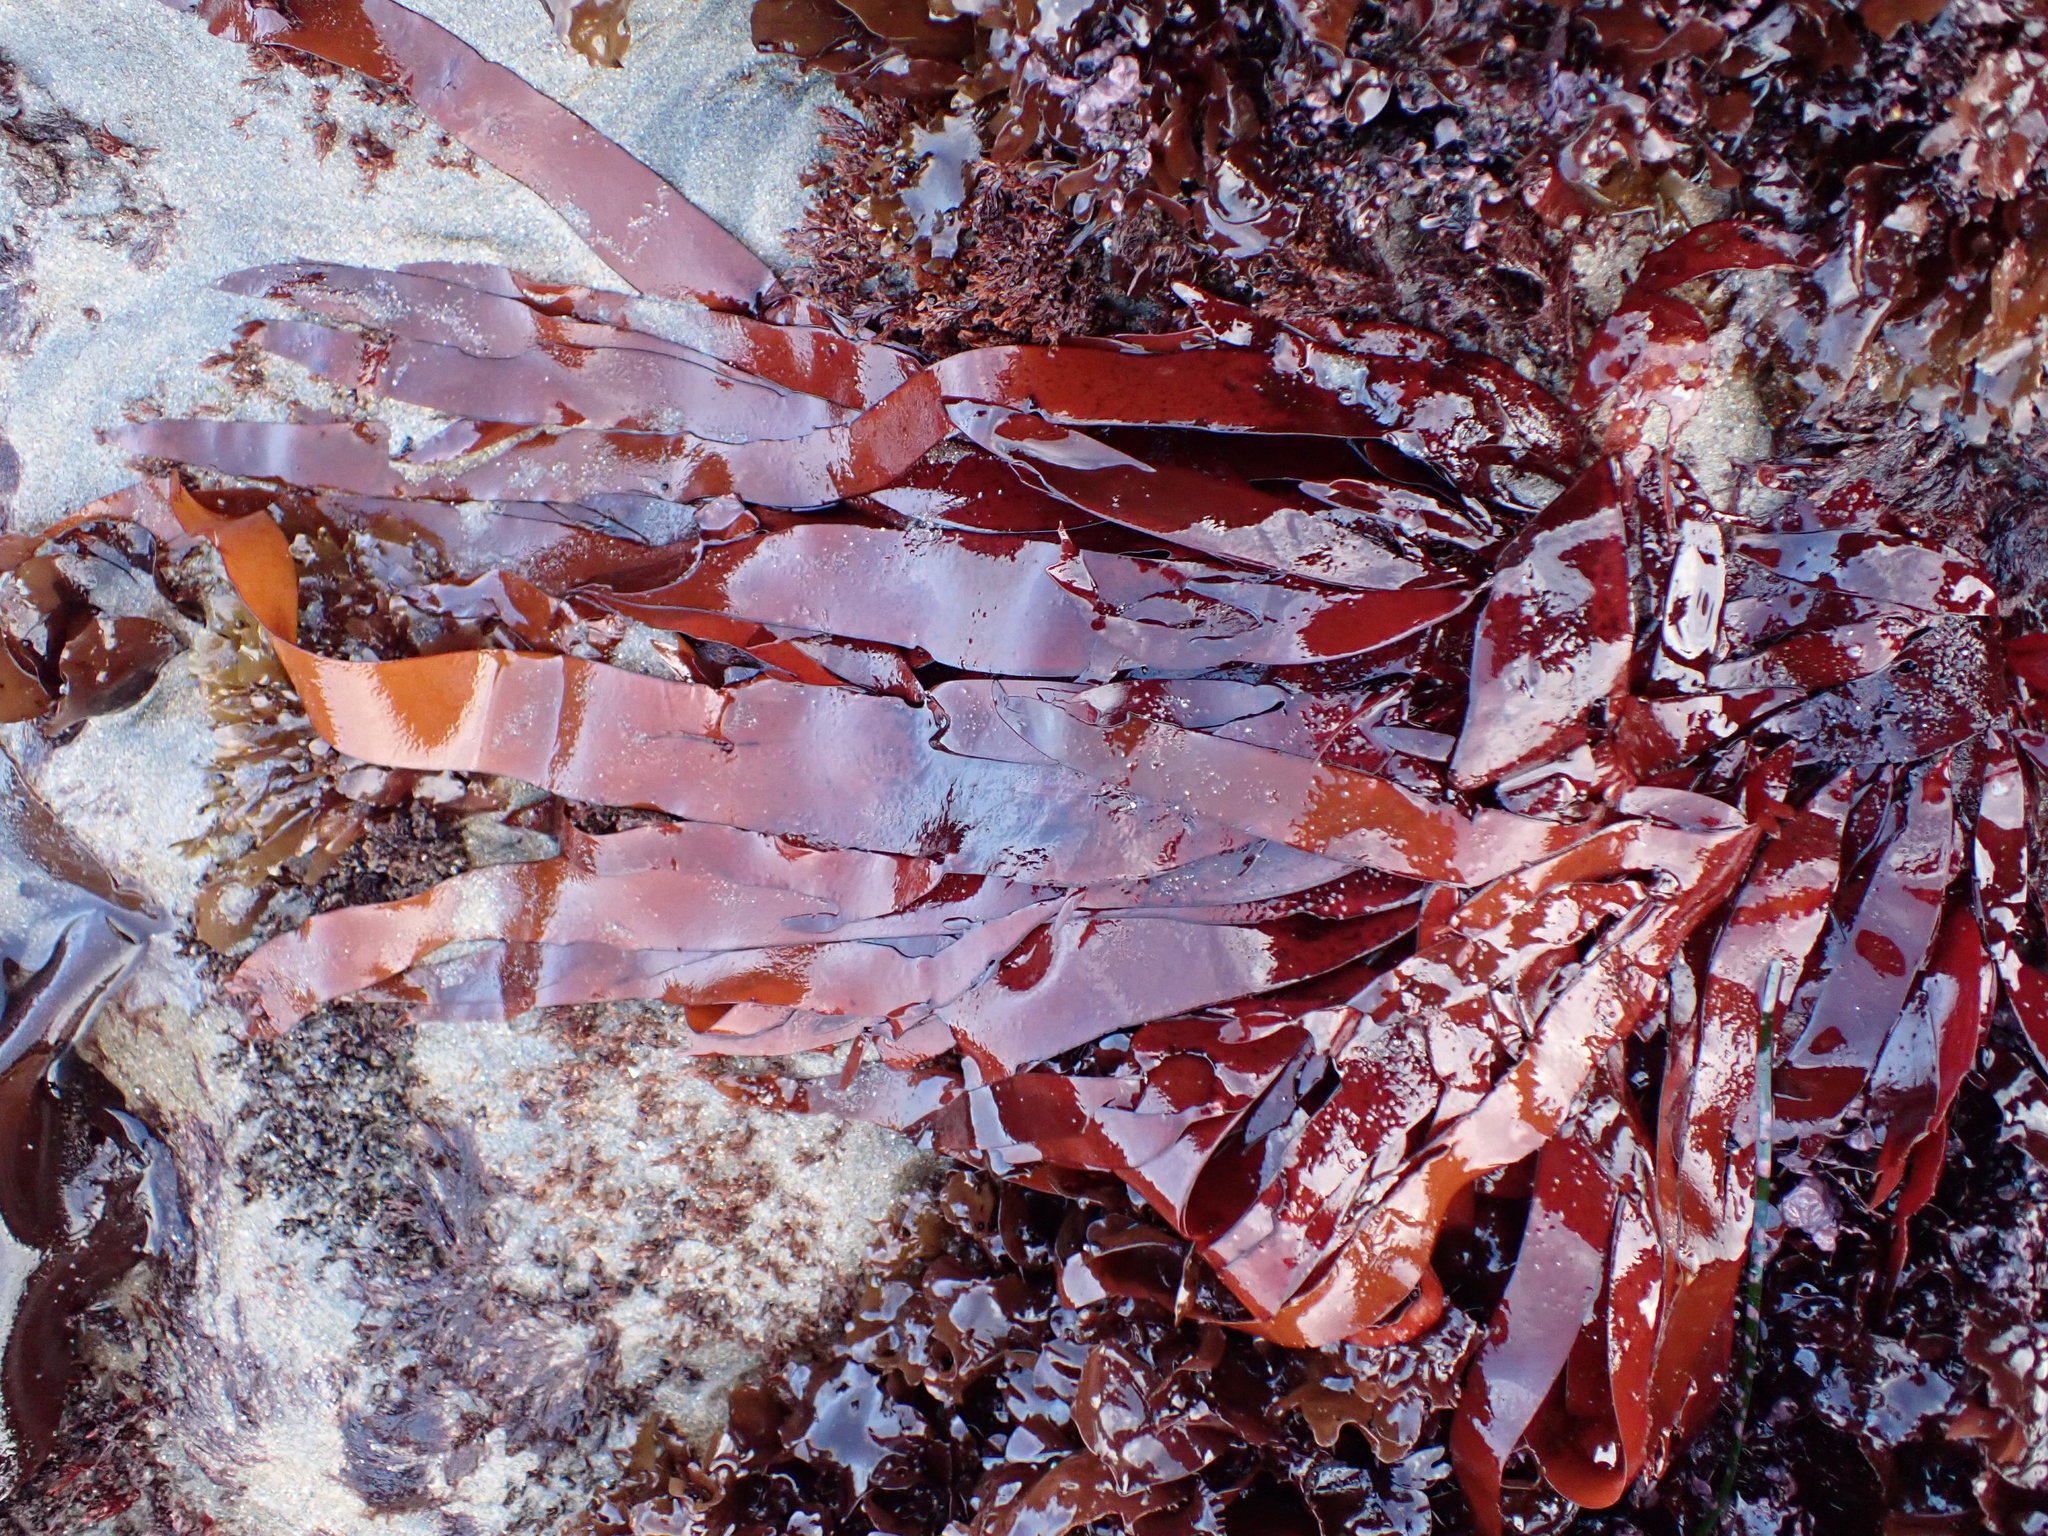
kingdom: Plantae
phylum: Rhodophyta
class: Florideophyceae
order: Halymeniales
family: Halymeniaceae
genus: Grateloupia
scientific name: Grateloupia Prionitis sternbergii
